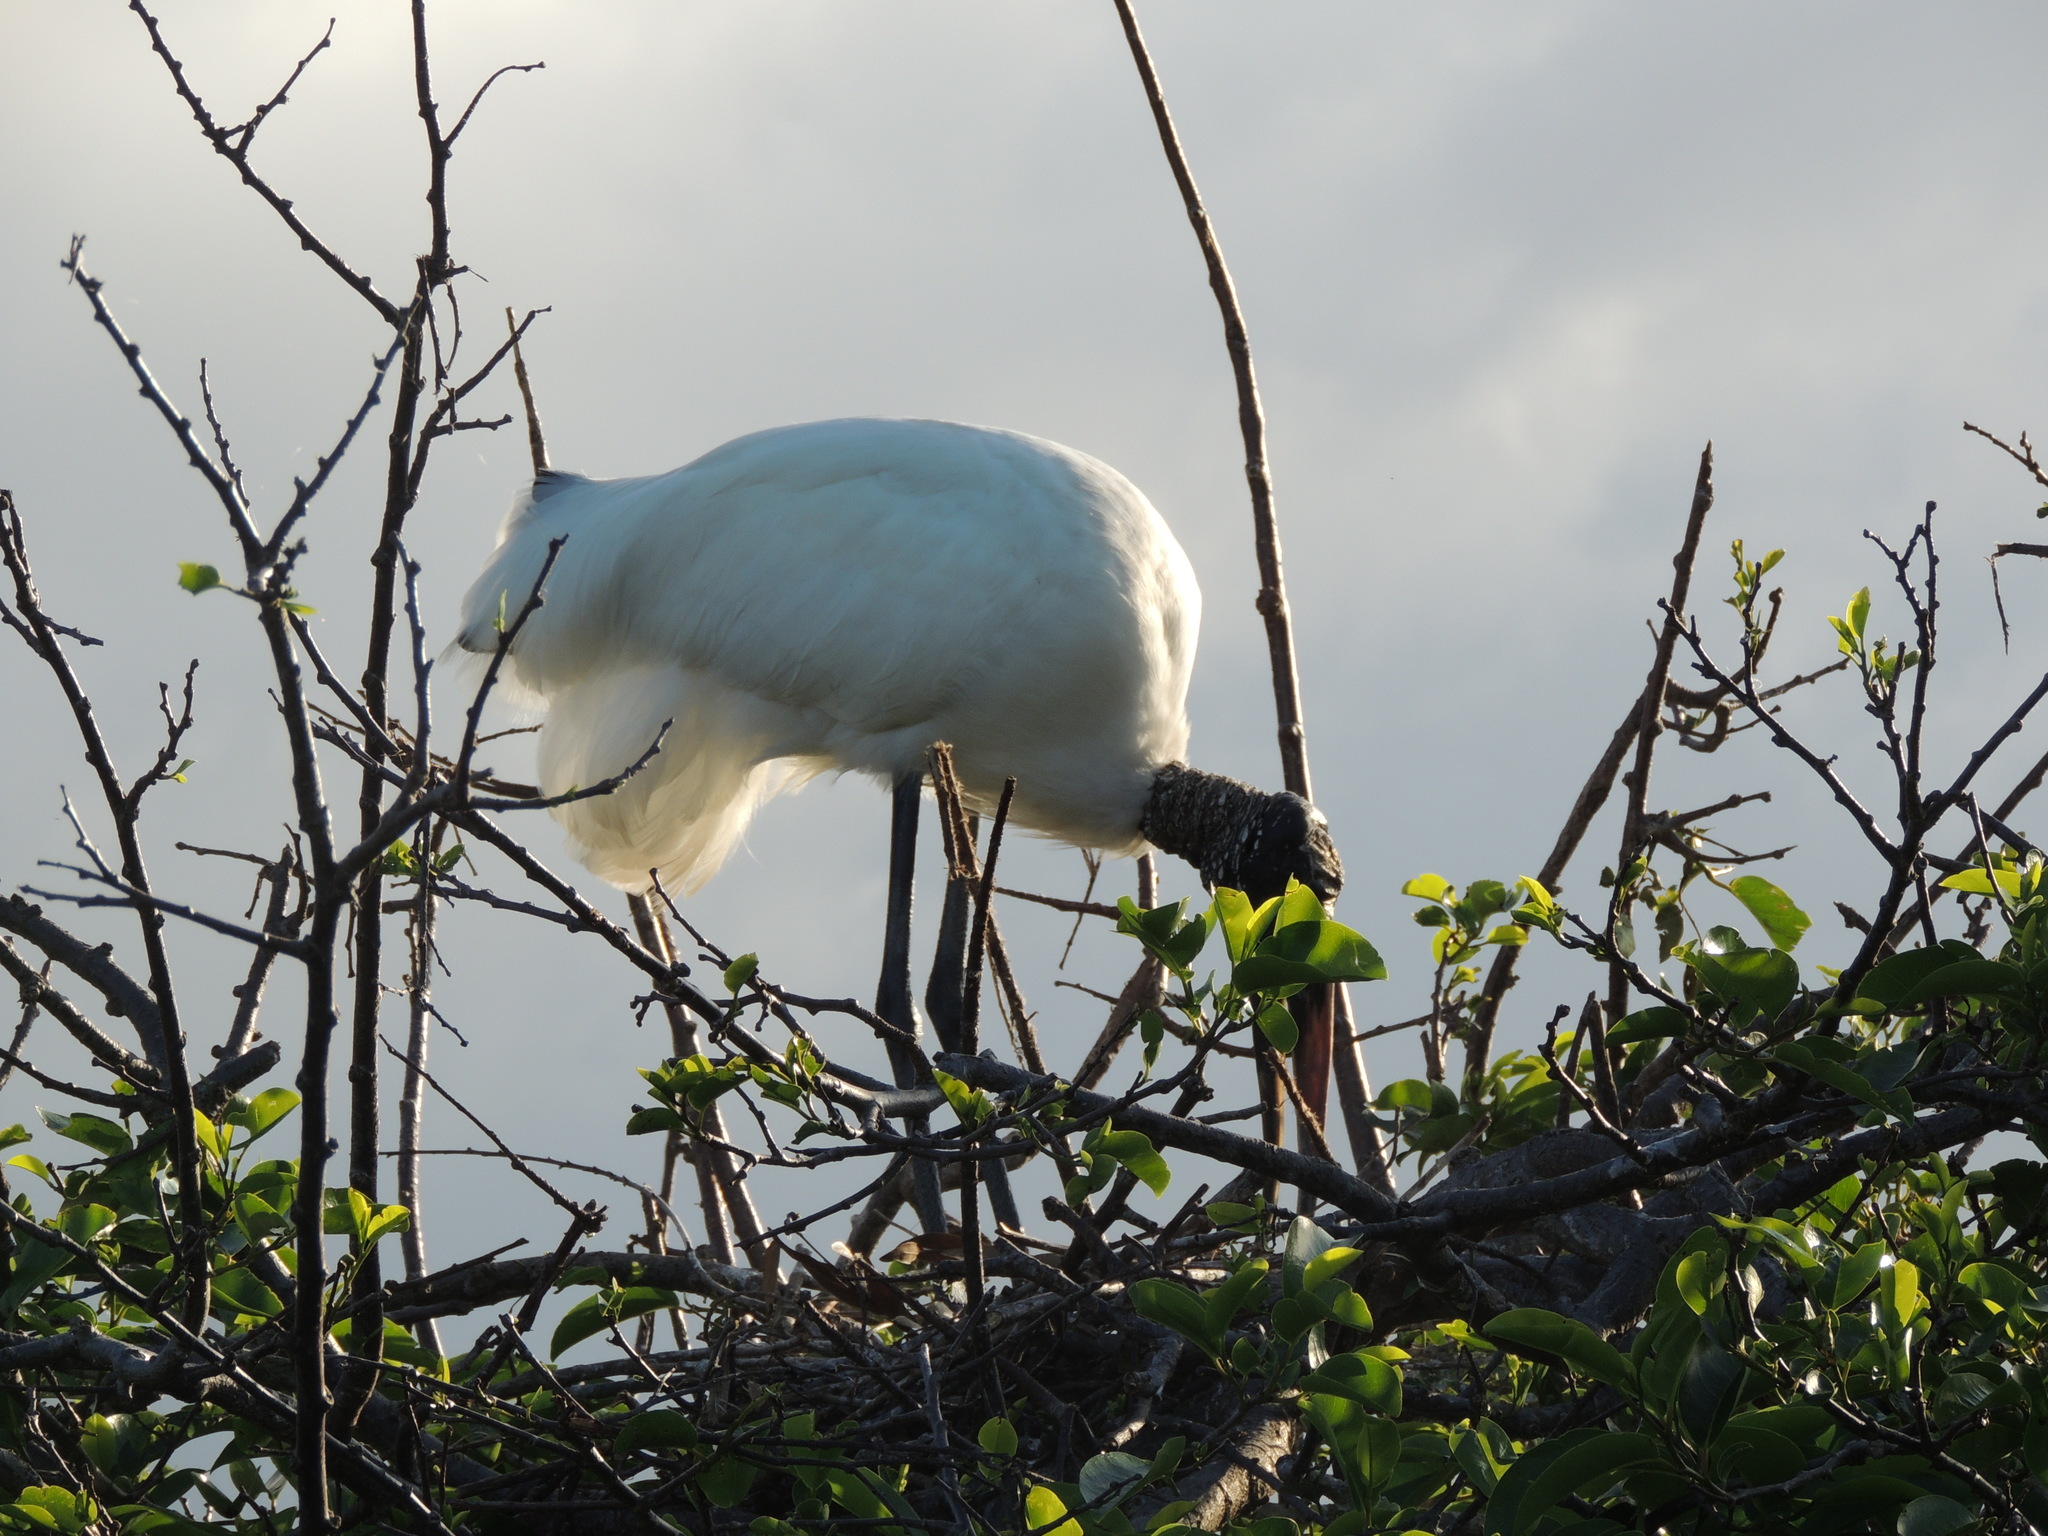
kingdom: Animalia
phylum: Chordata
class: Aves
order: Ciconiiformes
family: Ciconiidae
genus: Mycteria
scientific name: Mycteria americana
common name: Wood stork
